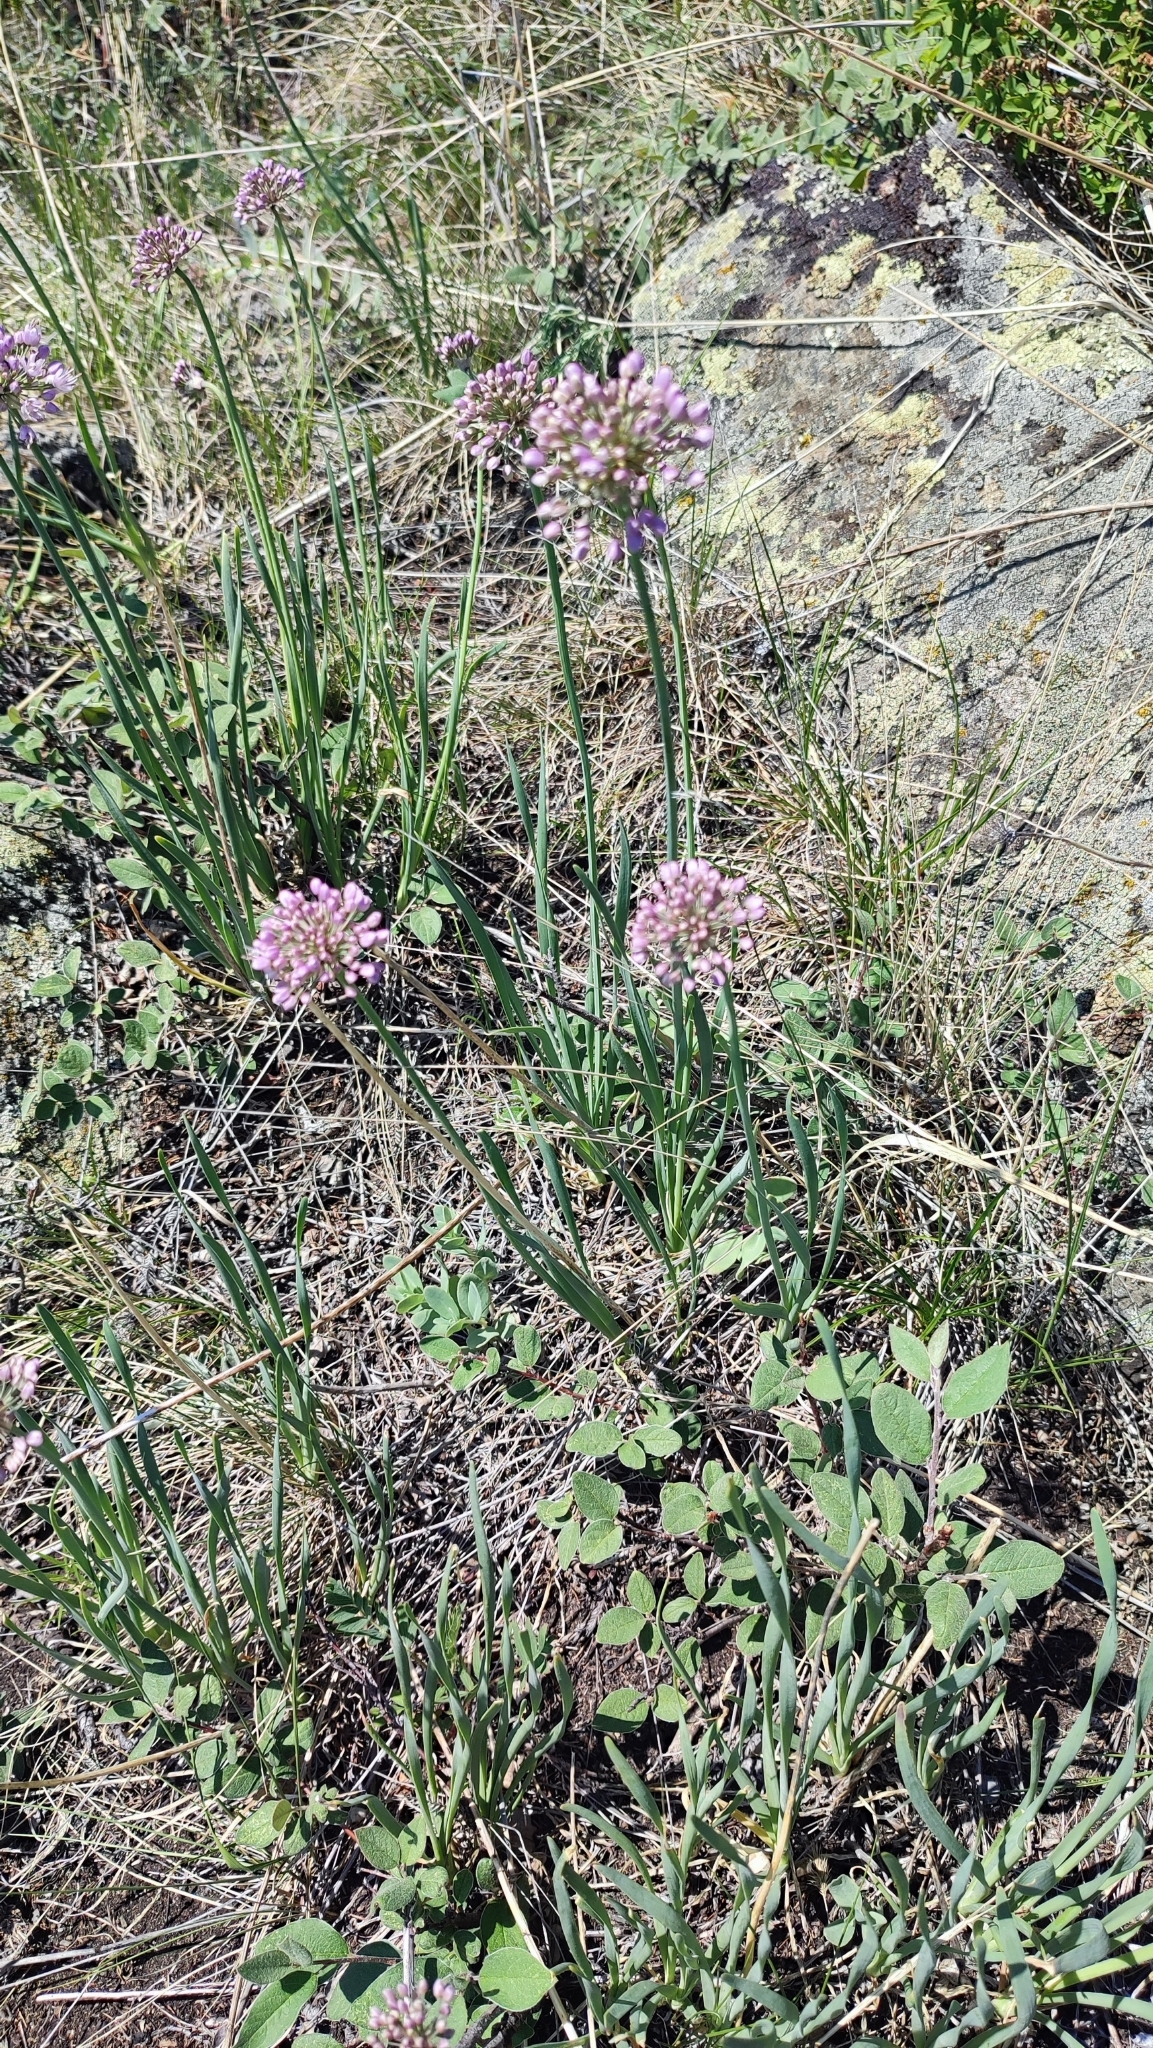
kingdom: Plantae
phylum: Tracheophyta
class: Liliopsida
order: Asparagales
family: Amaryllidaceae
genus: Allium
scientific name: Allium senescens
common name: German garlic
